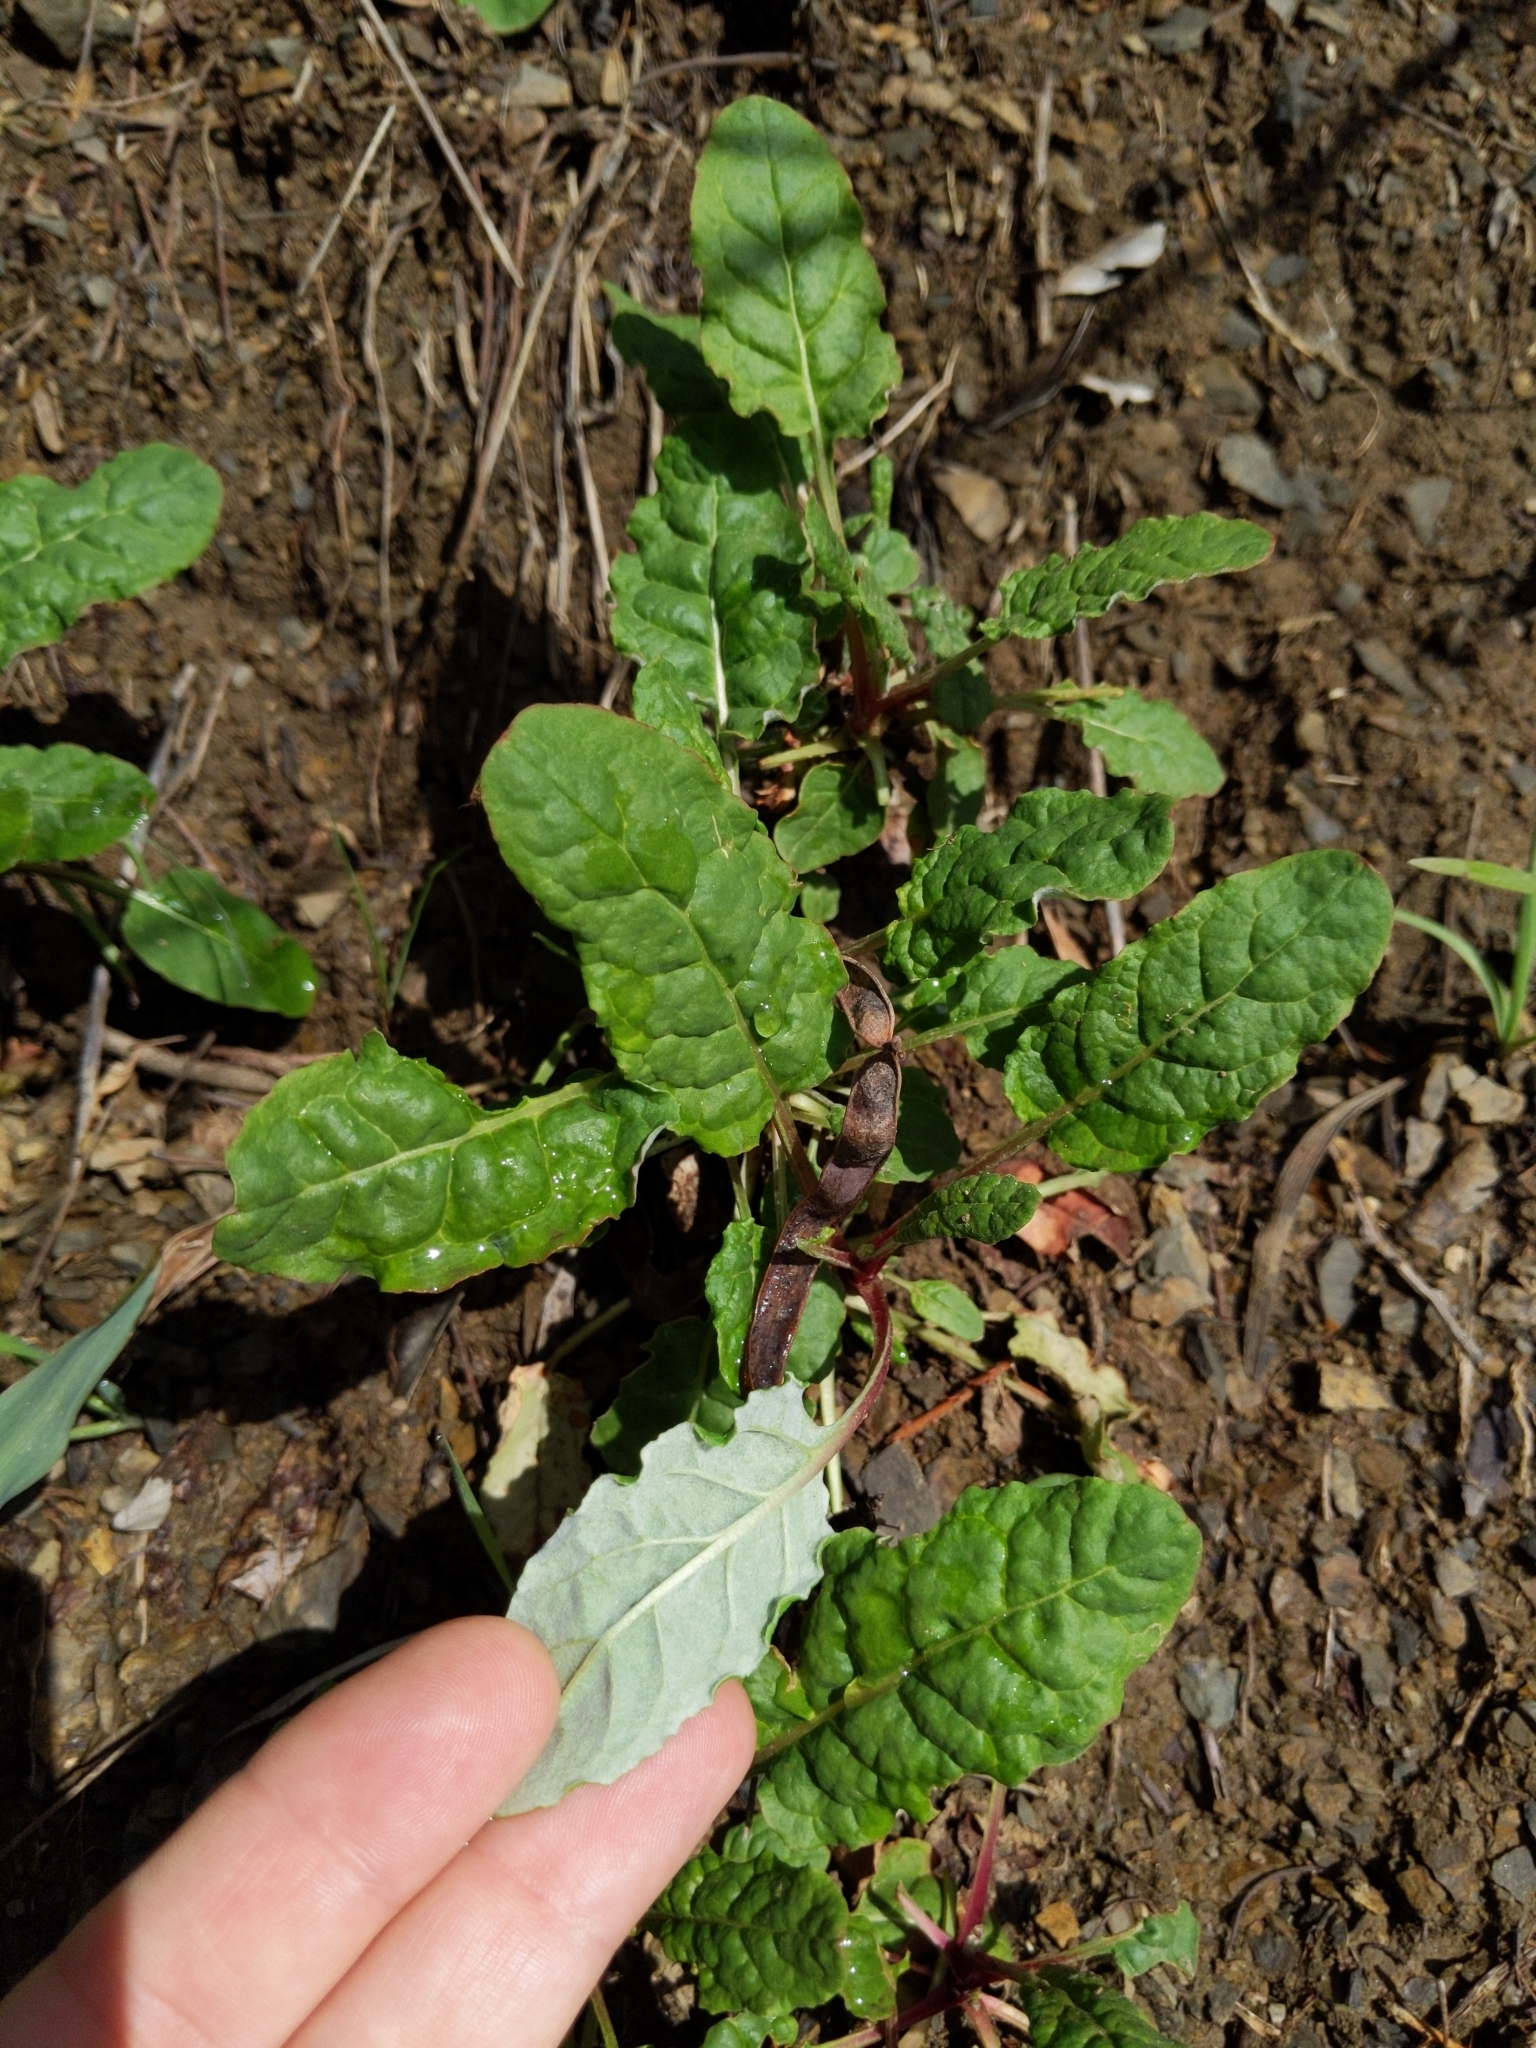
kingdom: Plantae
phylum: Tracheophyta
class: Magnoliopsida
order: Caryophyllales
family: Polygonaceae
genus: Eriogonum
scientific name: Eriogonum nudum
